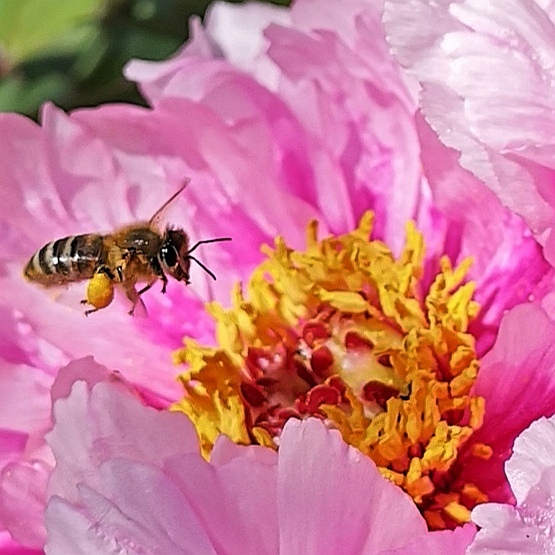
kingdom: Animalia
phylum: Arthropoda
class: Insecta
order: Hymenoptera
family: Apidae
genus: Apis
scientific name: Apis mellifera
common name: Honey bee
